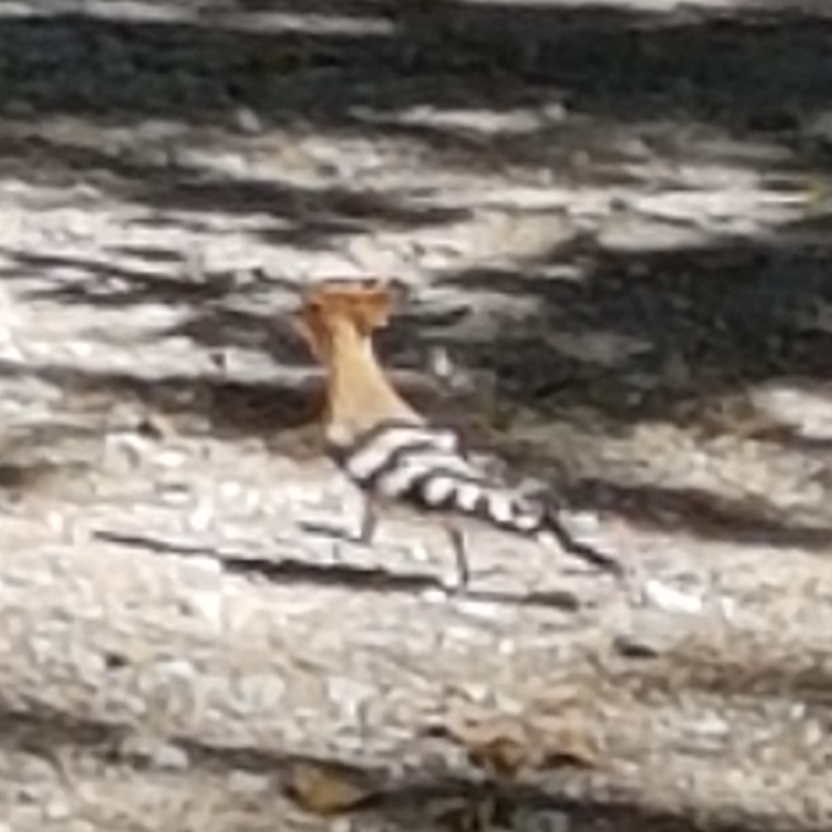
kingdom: Animalia
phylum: Chordata
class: Aves
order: Bucerotiformes
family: Upupidae
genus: Upupa
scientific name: Upupa epops
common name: Eurasian hoopoe
